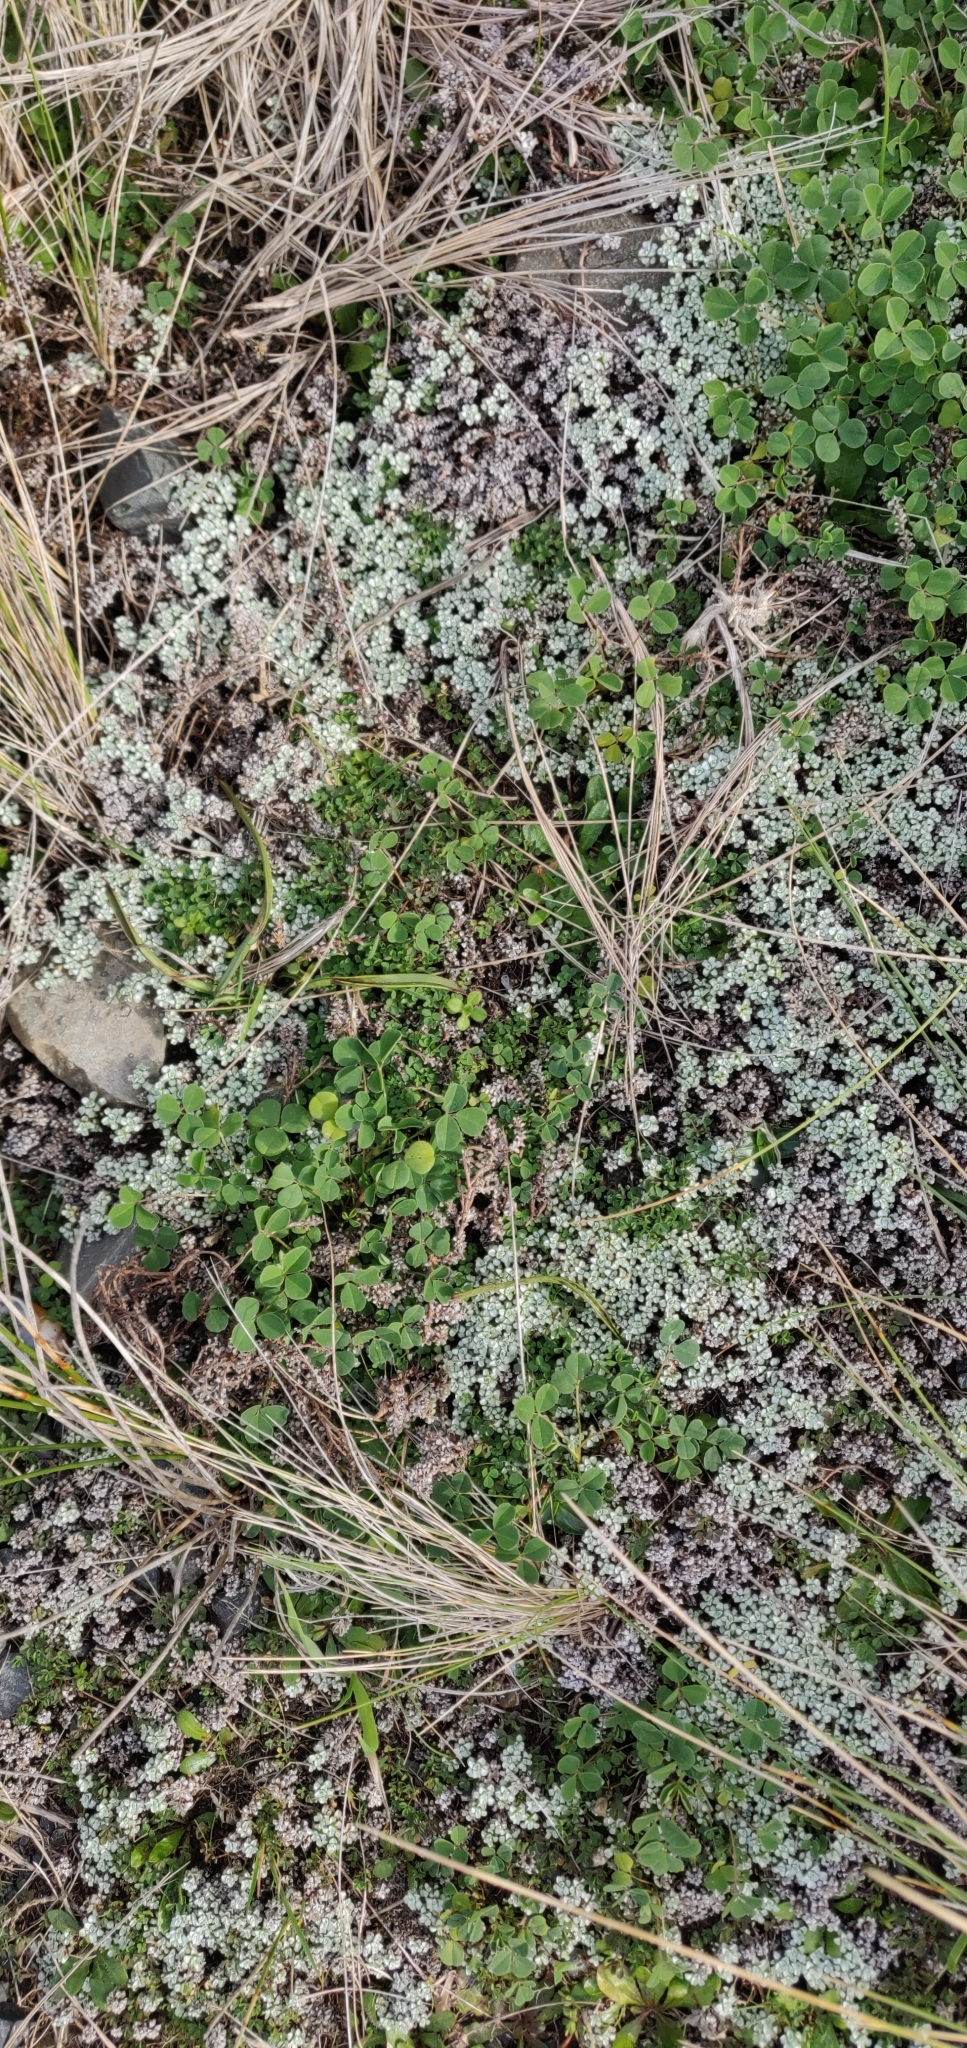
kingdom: Plantae
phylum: Tracheophyta
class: Magnoliopsida
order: Asterales
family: Asteraceae
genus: Raoulia
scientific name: Raoulia hookeri
